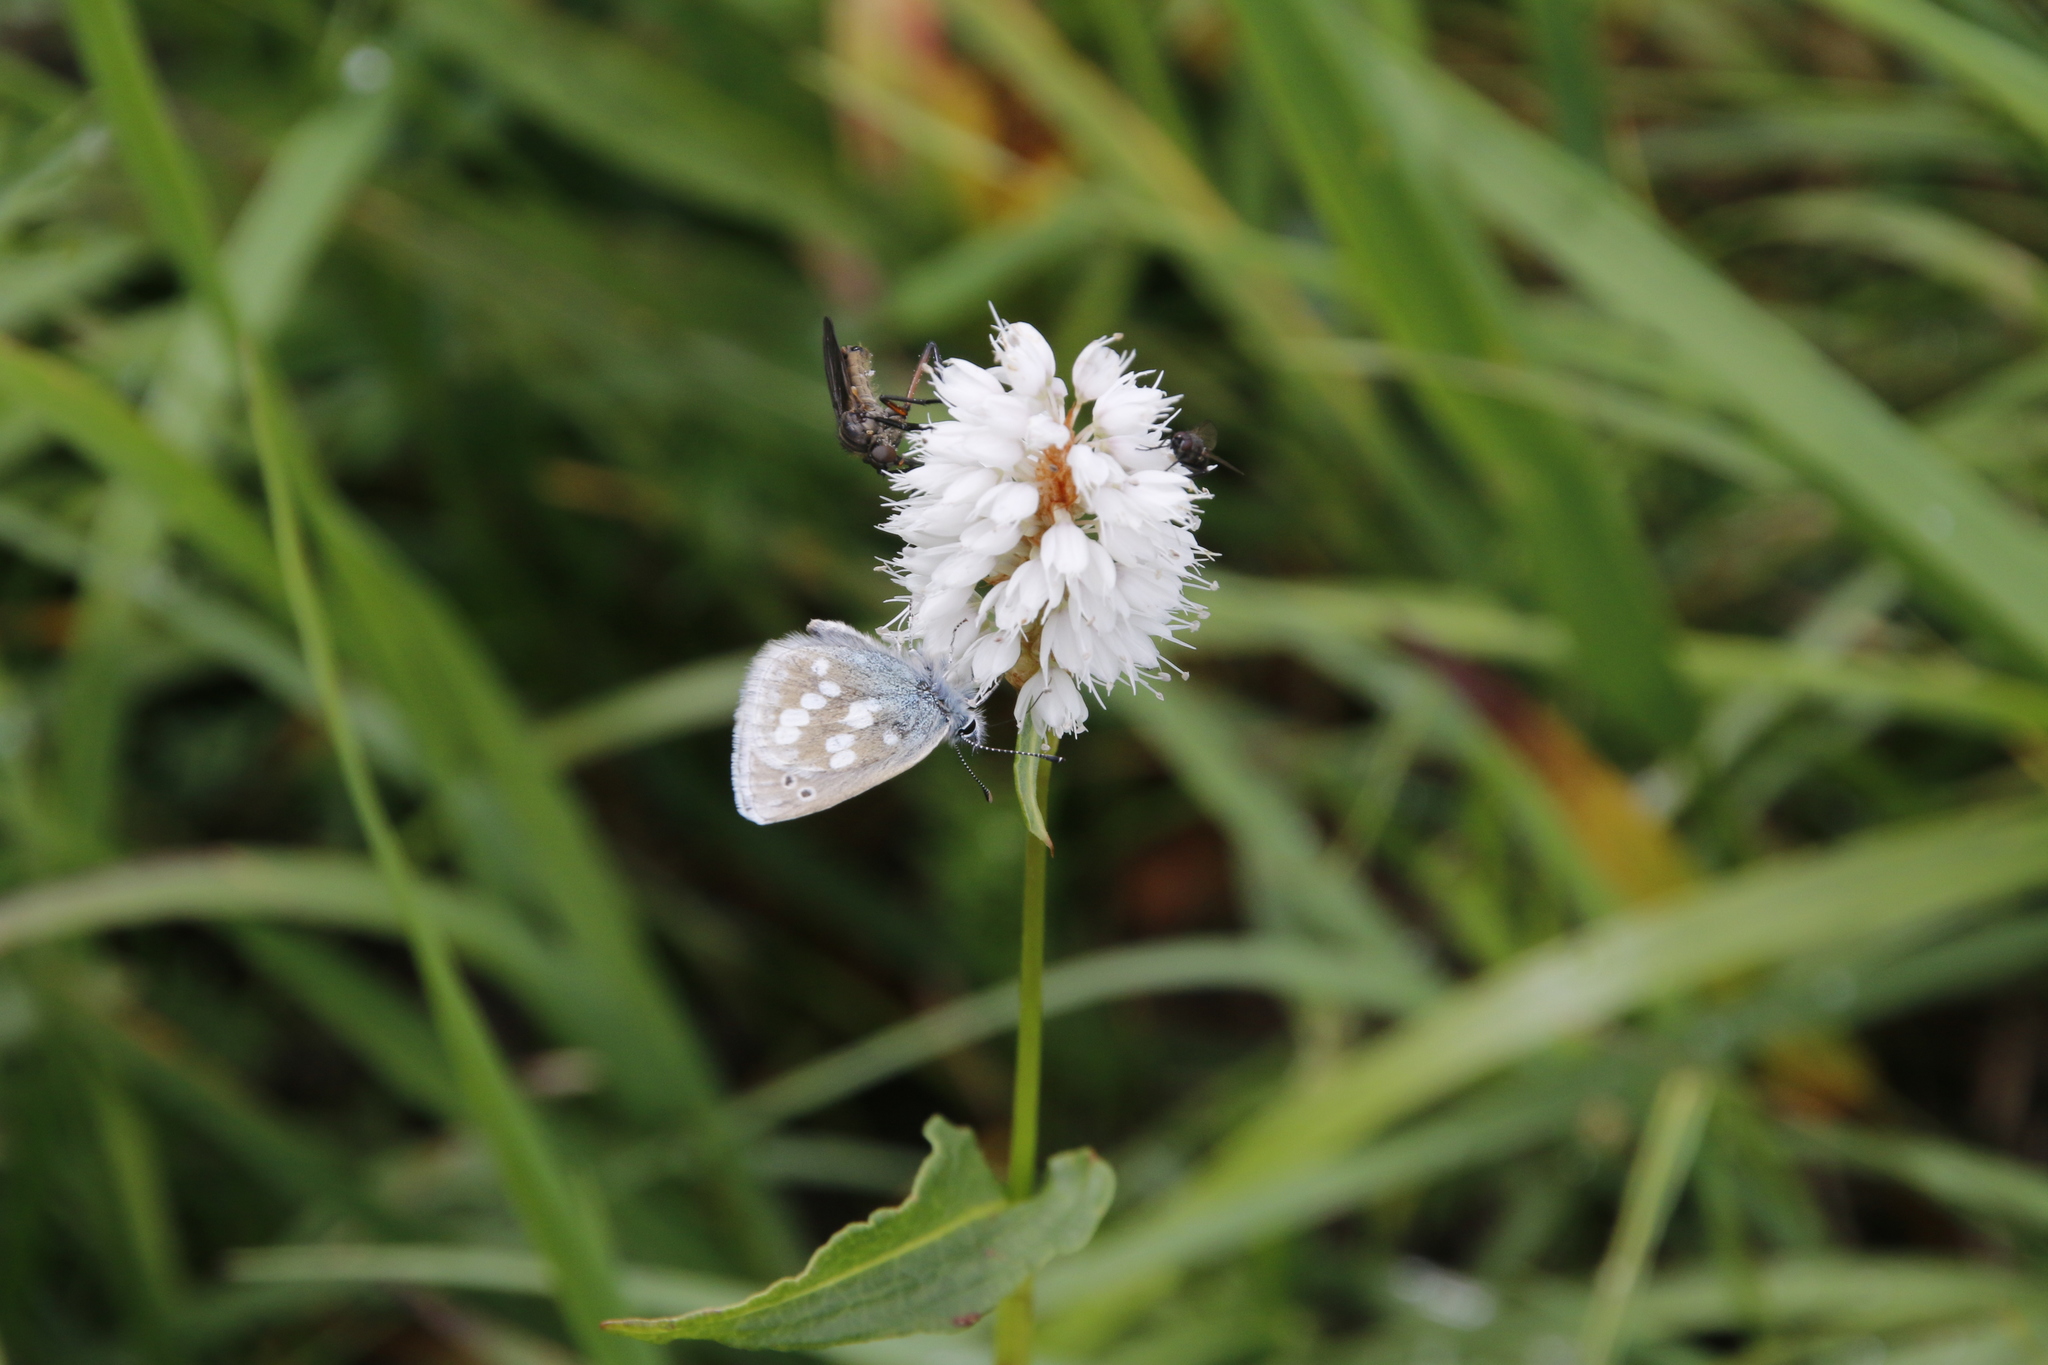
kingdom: Animalia
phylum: Arthropoda
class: Insecta
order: Lepidoptera
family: Lycaenidae
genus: Albulina
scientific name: Albulina orbitulus
